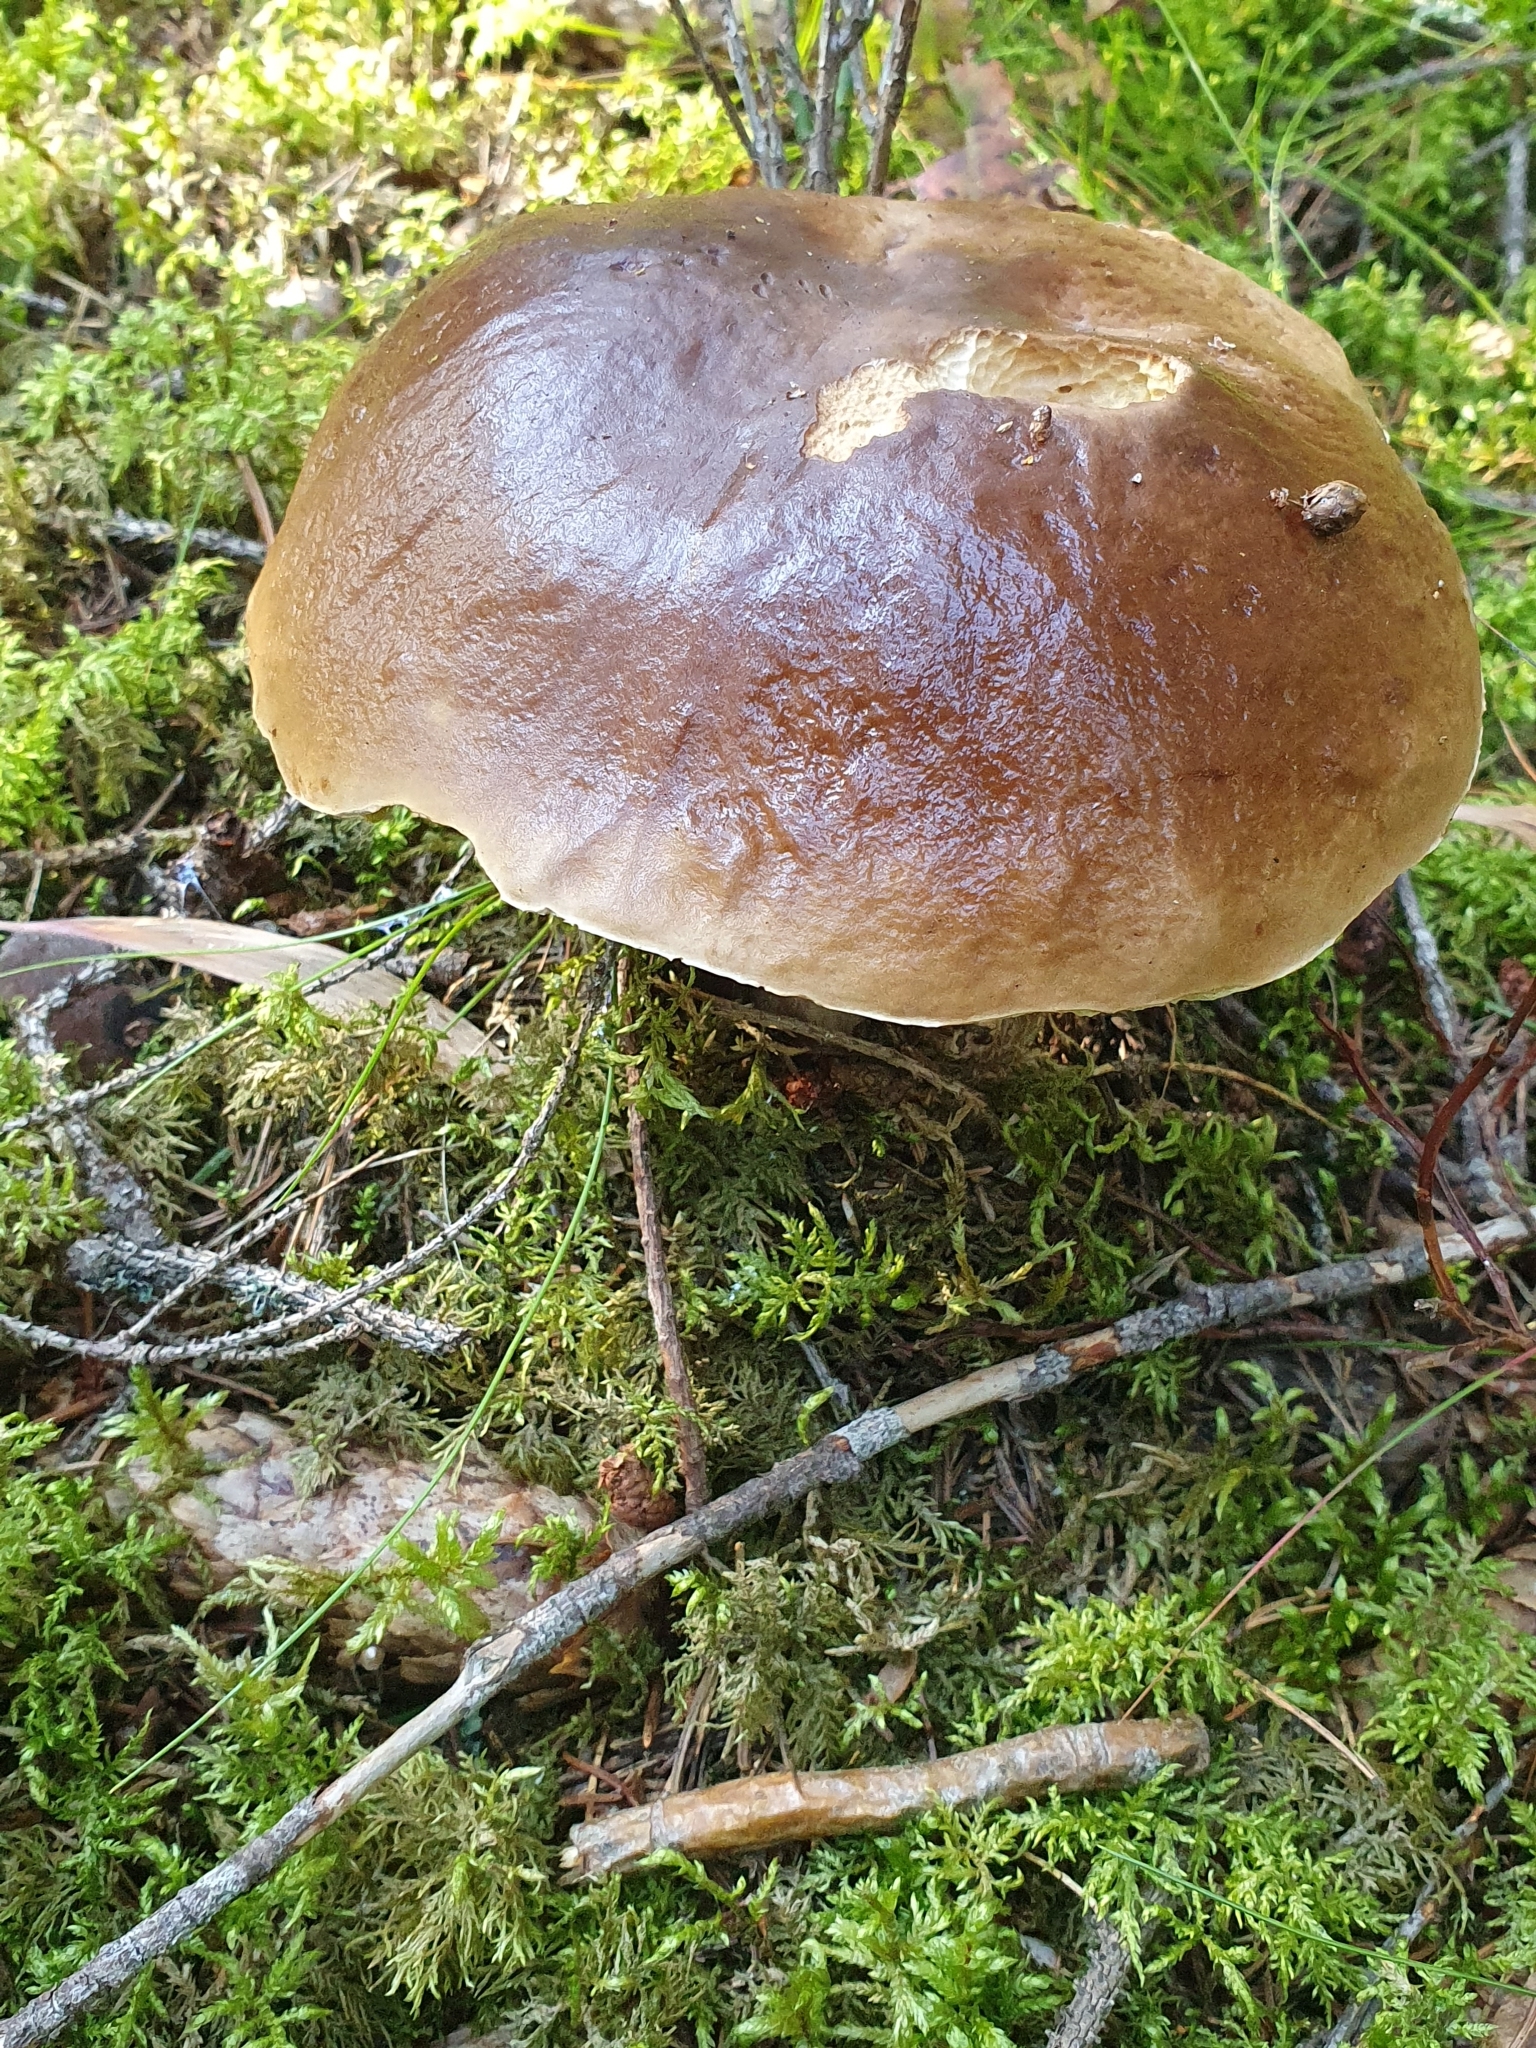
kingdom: Fungi
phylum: Basidiomycota
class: Agaricomycetes
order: Boletales
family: Boletaceae
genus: Boletus
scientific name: Boletus edulis
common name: Cep
